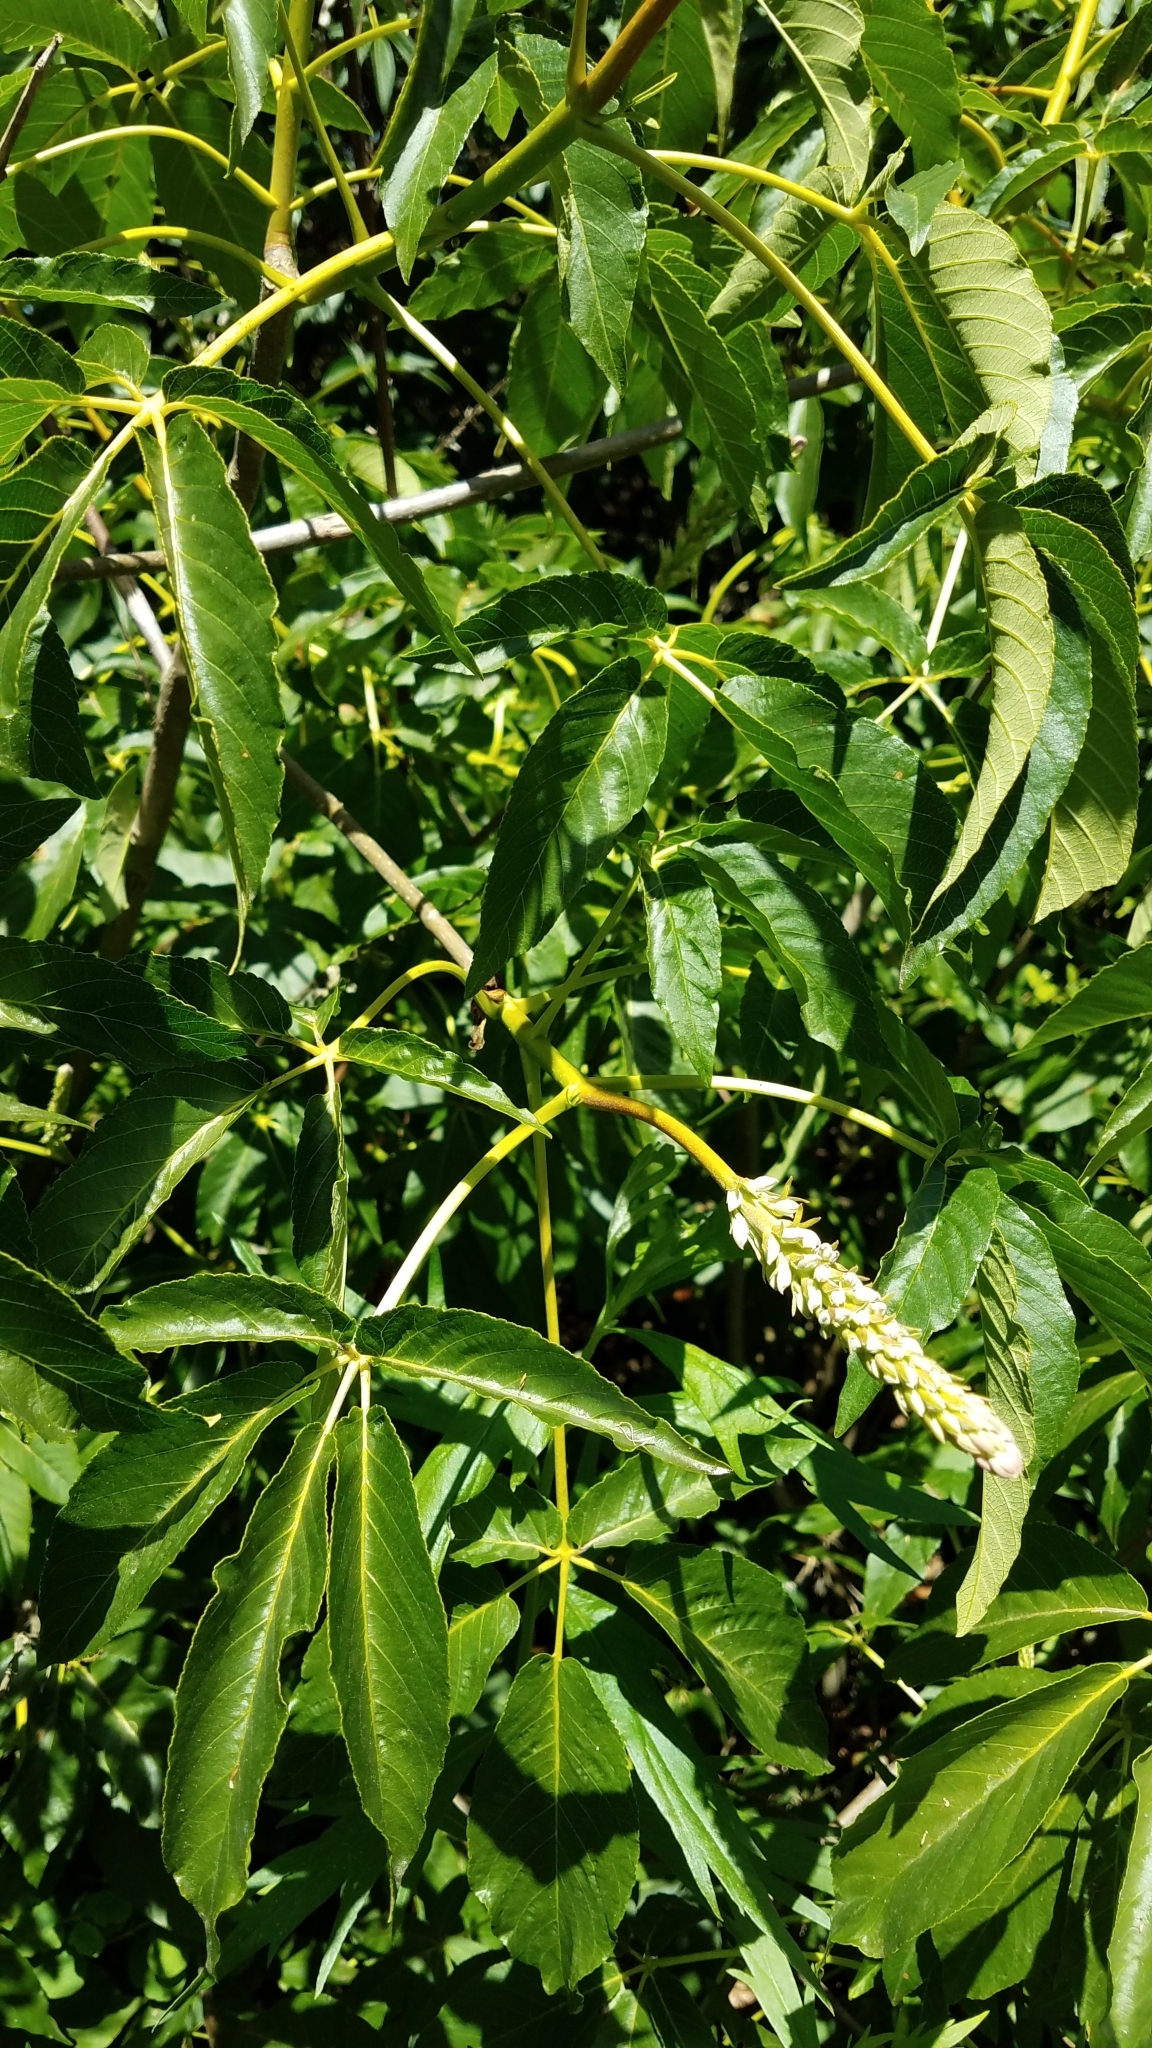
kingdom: Plantae
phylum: Tracheophyta
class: Magnoliopsida
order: Sapindales
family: Sapindaceae
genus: Aesculus
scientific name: Aesculus californica
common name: California buckeye
